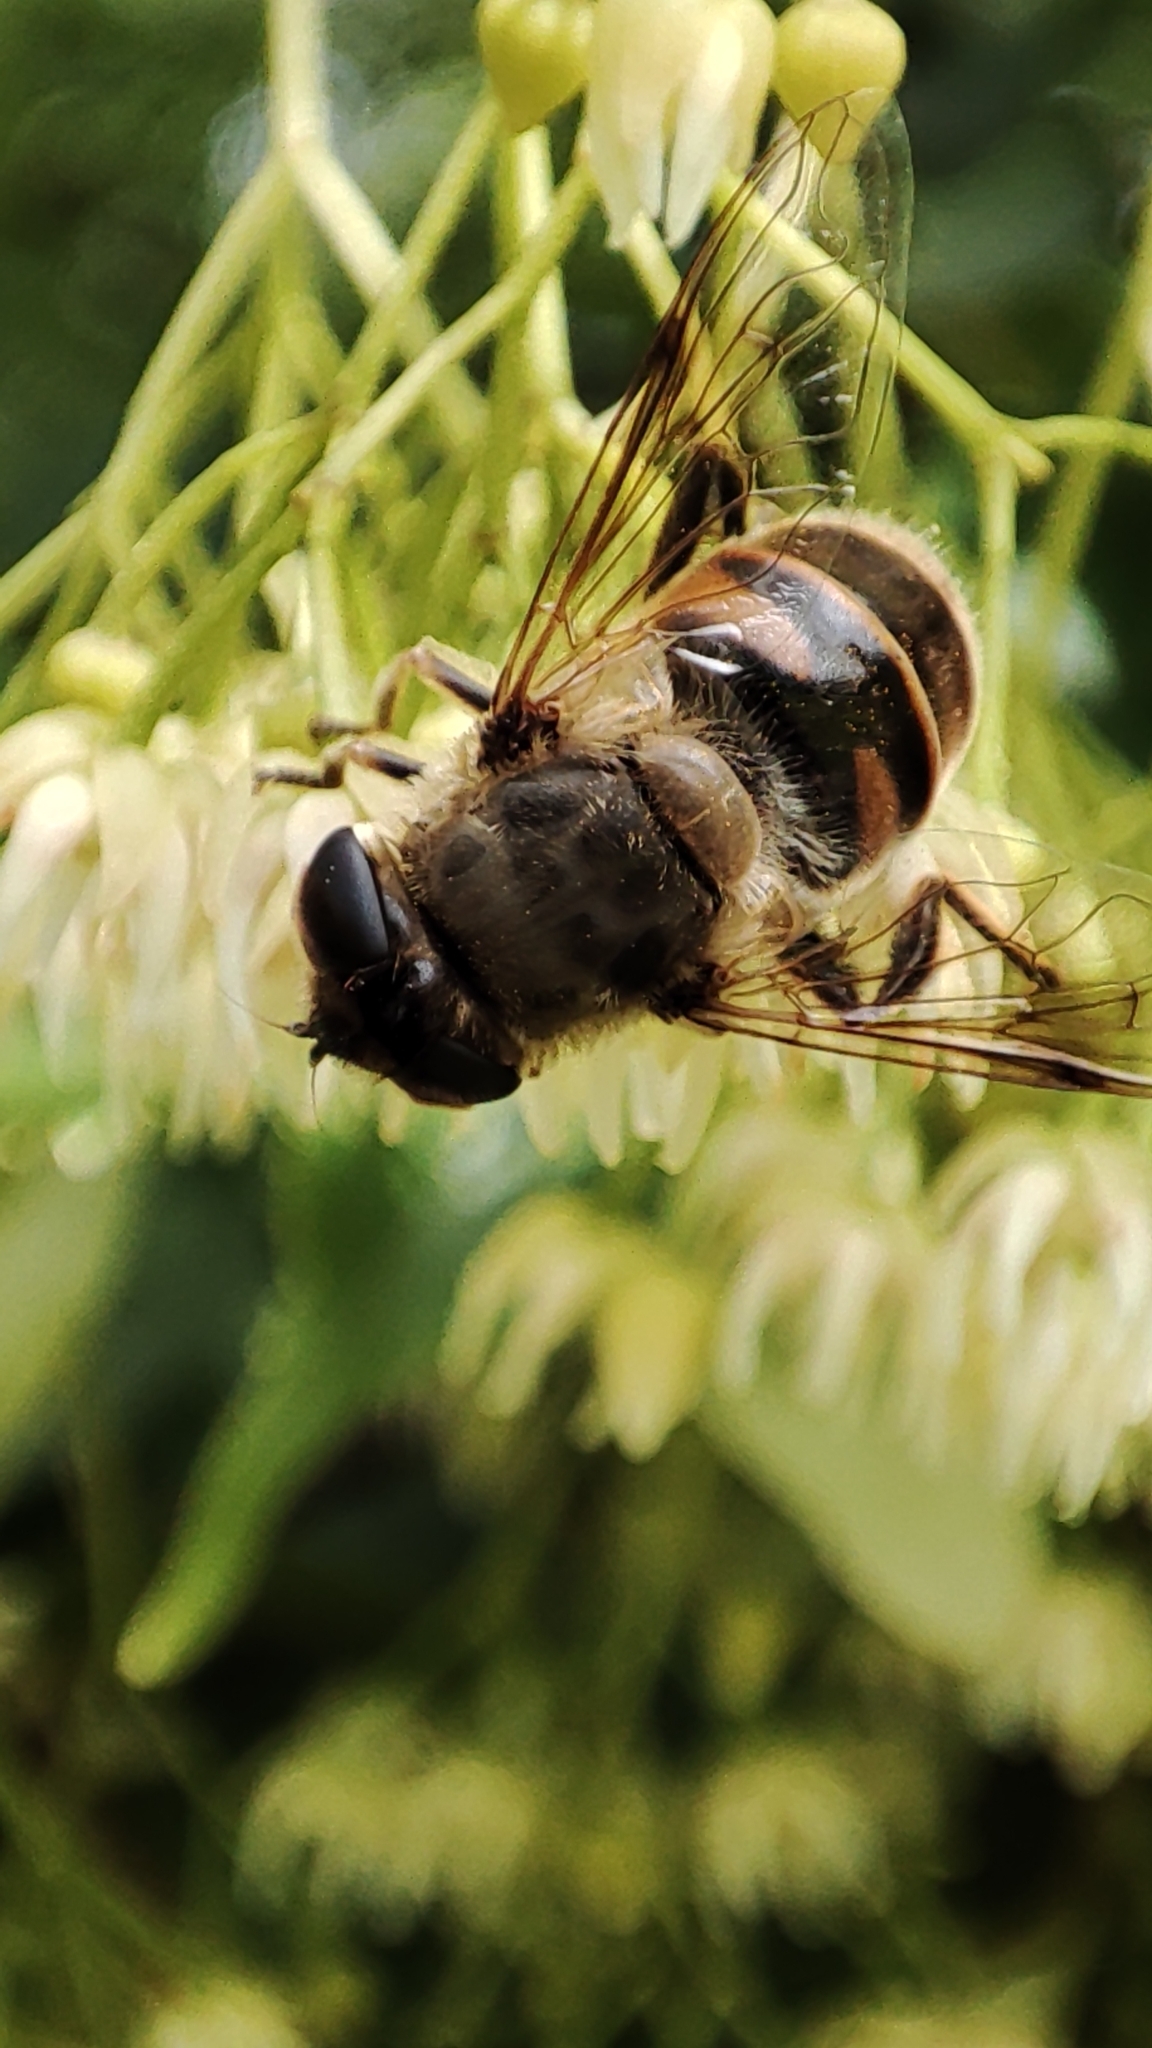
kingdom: Animalia
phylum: Arthropoda
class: Insecta
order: Diptera
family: Syrphidae
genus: Eristalis
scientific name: Eristalis tenax
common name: Drone fly
